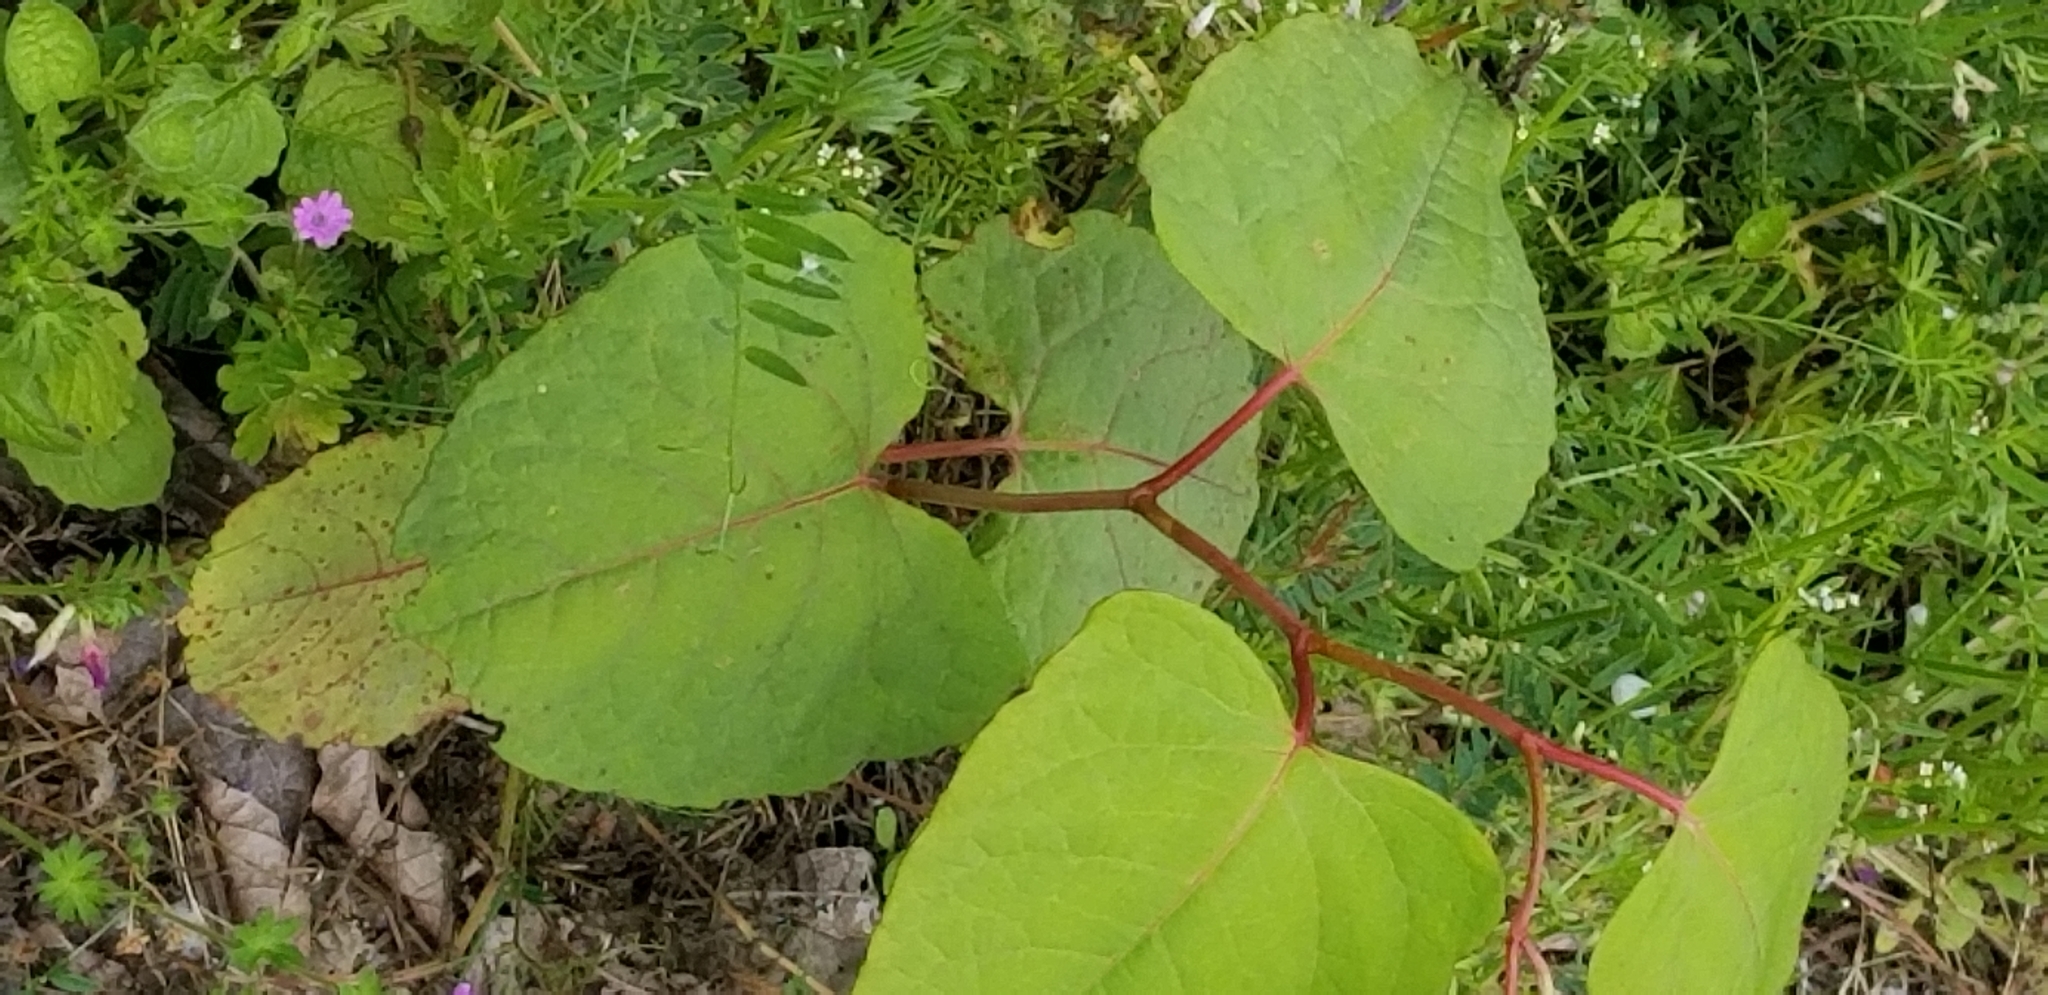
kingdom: Plantae
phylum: Tracheophyta
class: Magnoliopsida
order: Caryophyllales
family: Polygonaceae
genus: Reynoutria
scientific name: Reynoutria bohemica
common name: Bohemian knotweed
